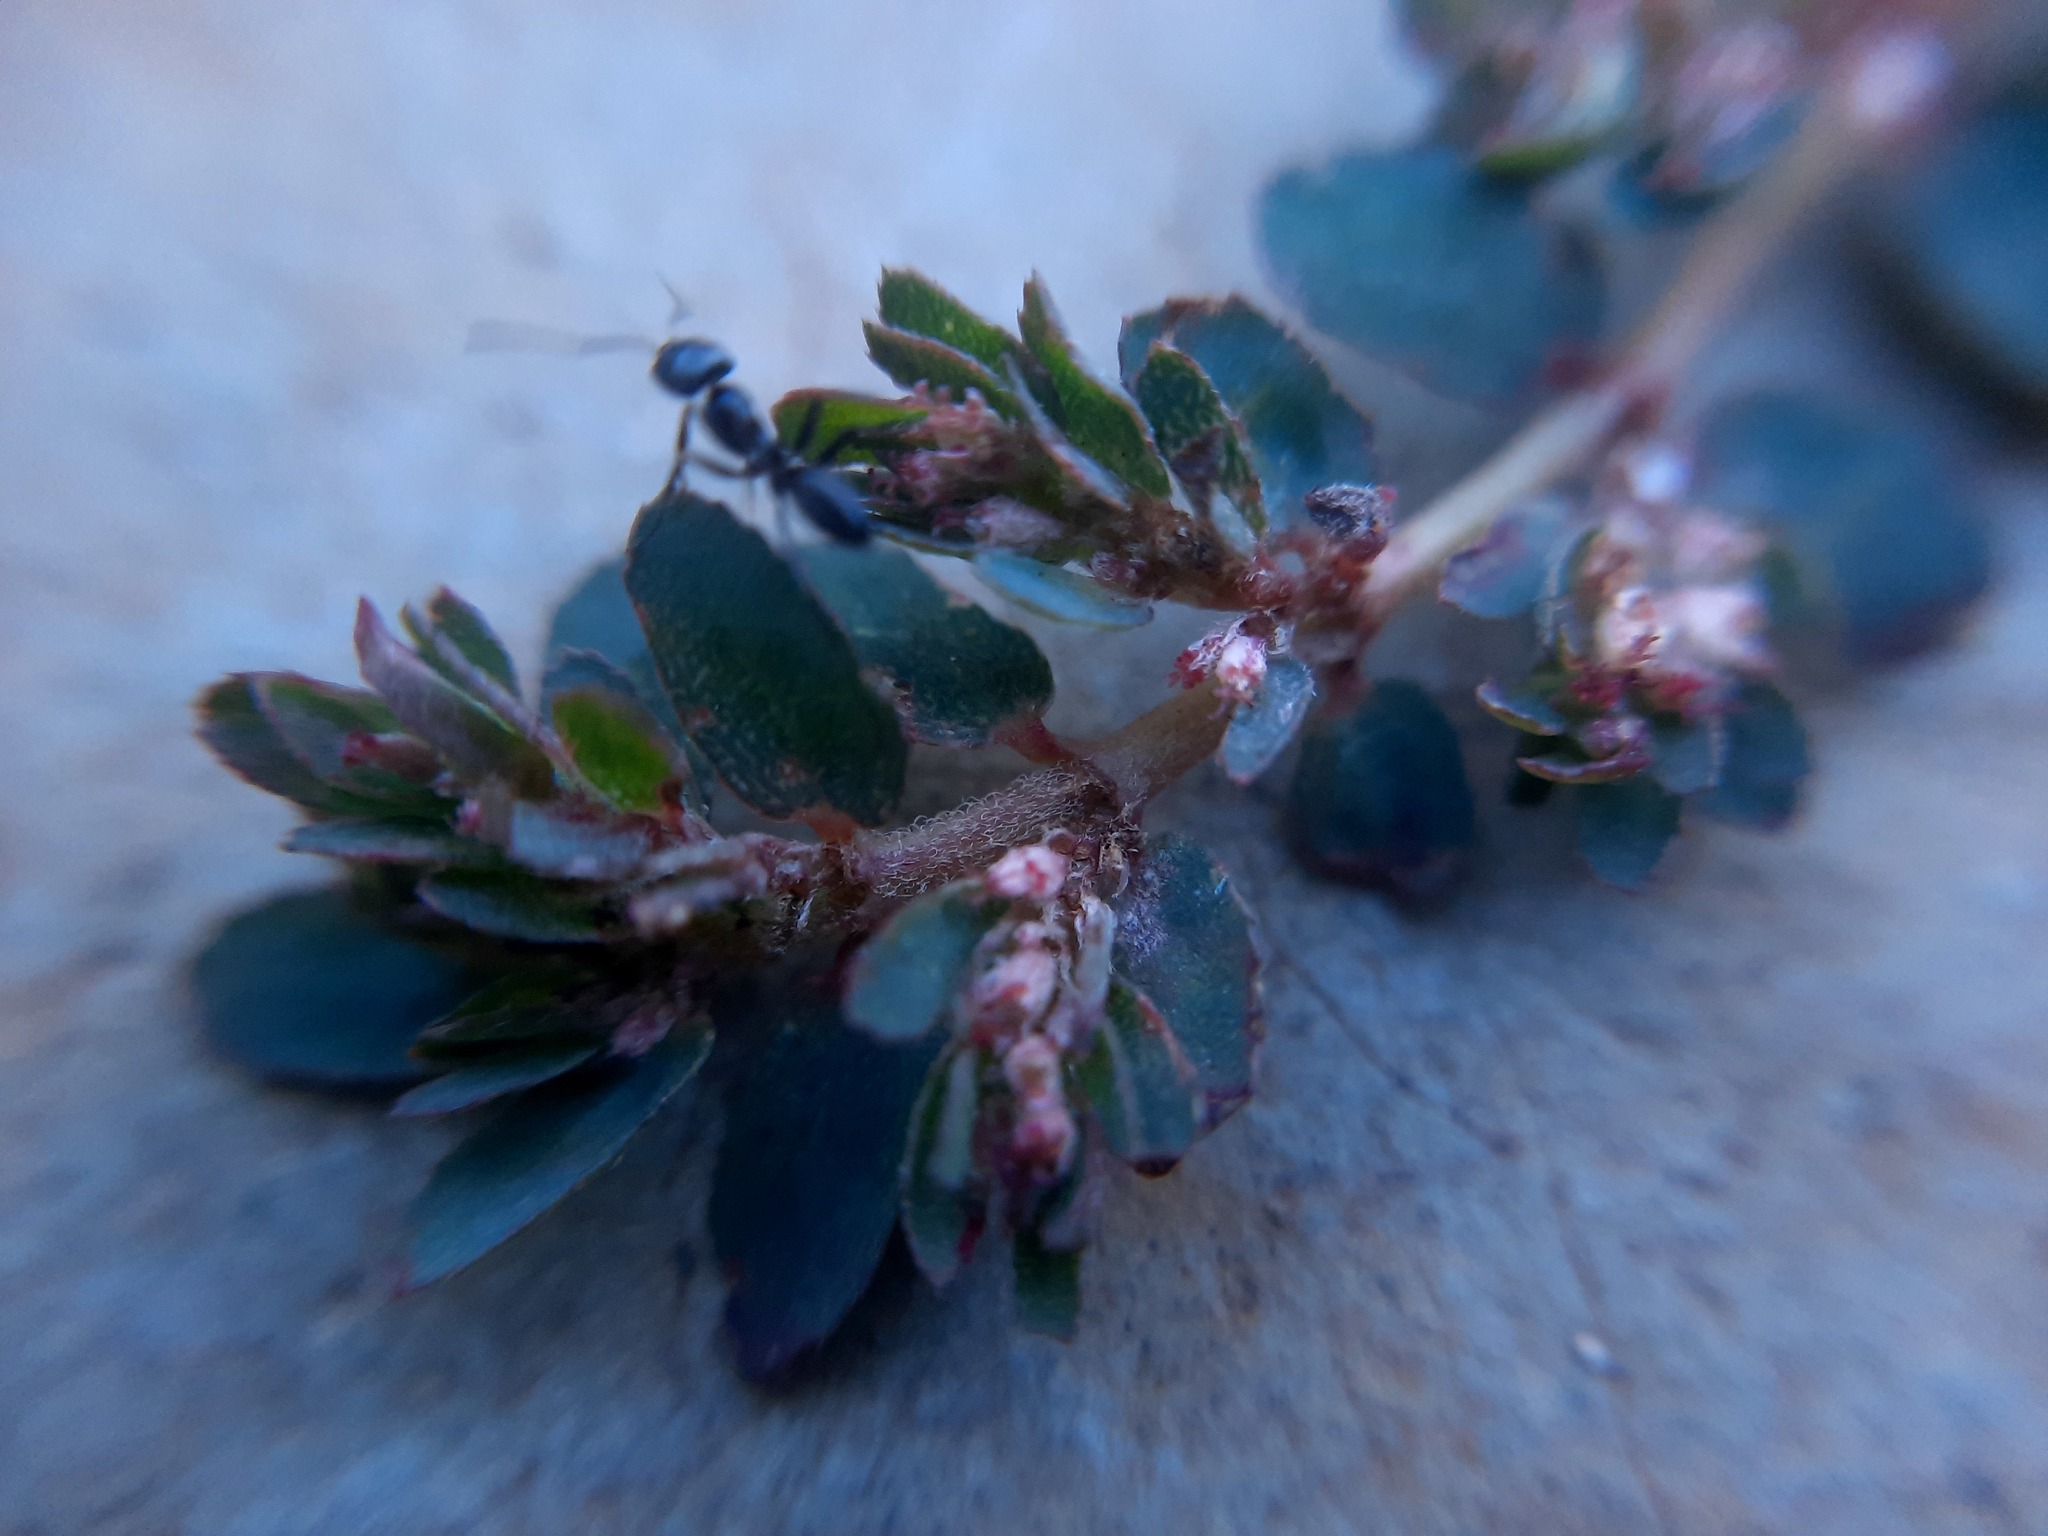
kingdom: Plantae
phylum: Tracheophyta
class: Magnoliopsida
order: Malpighiales
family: Euphorbiaceae
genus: Euphorbia
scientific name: Euphorbia thymifolia
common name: Gulf sandmat
